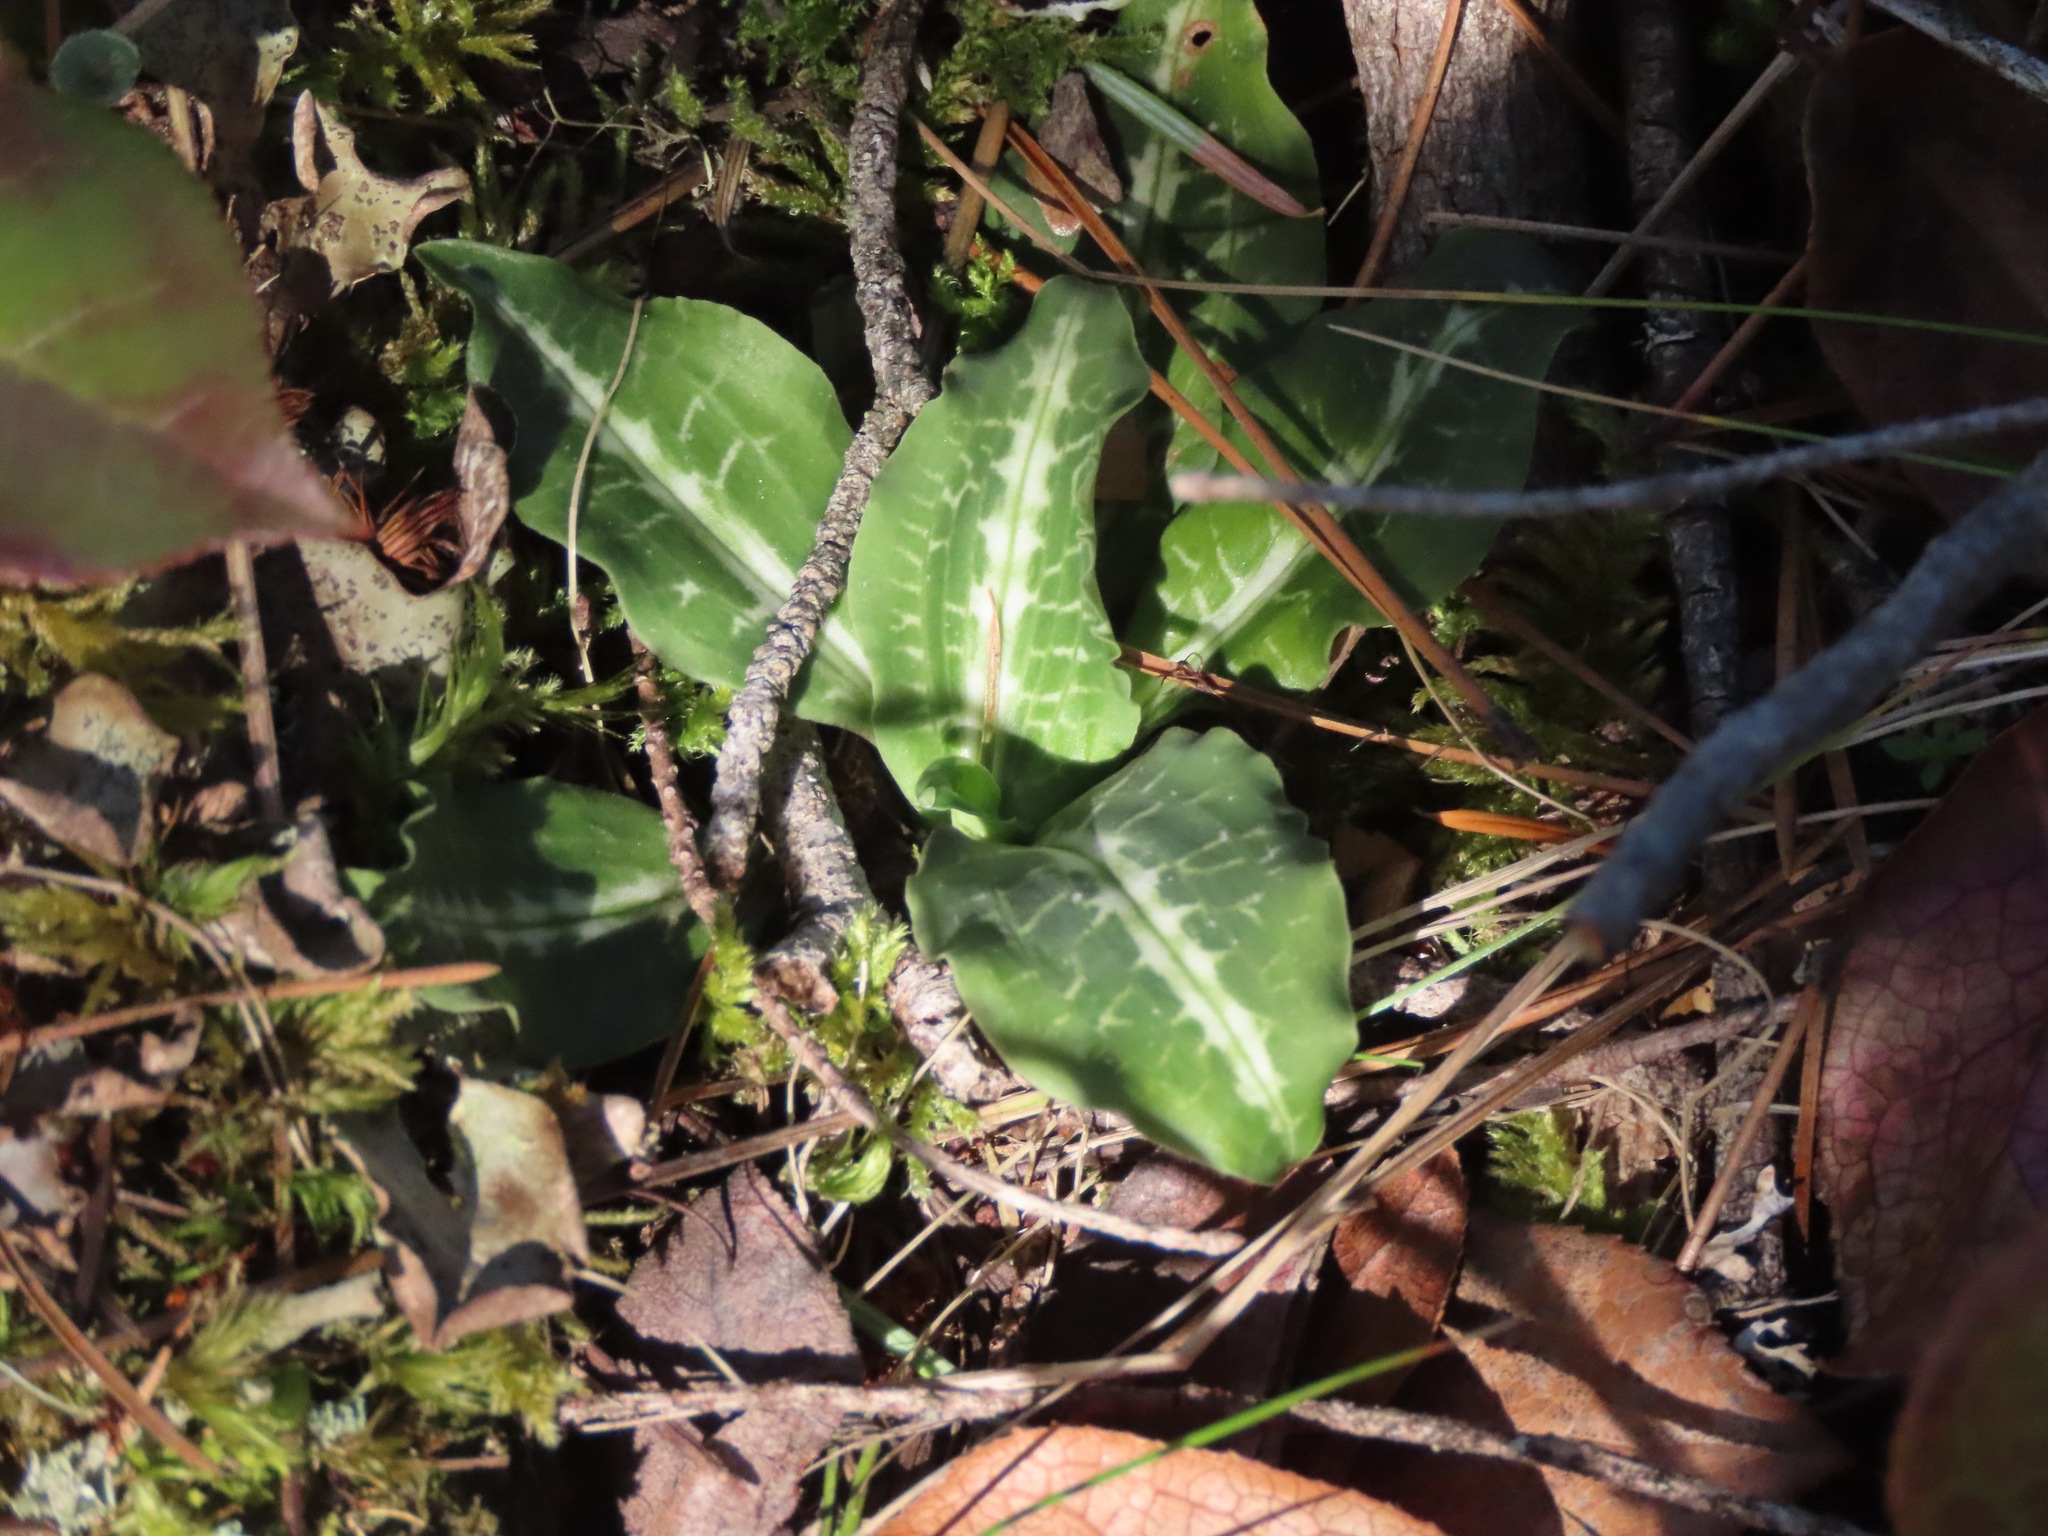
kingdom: Plantae
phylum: Tracheophyta
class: Liliopsida
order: Asparagales
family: Orchidaceae
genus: Goodyera
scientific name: Goodyera oblongifolia
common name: Giant rattlesnake-plantain
